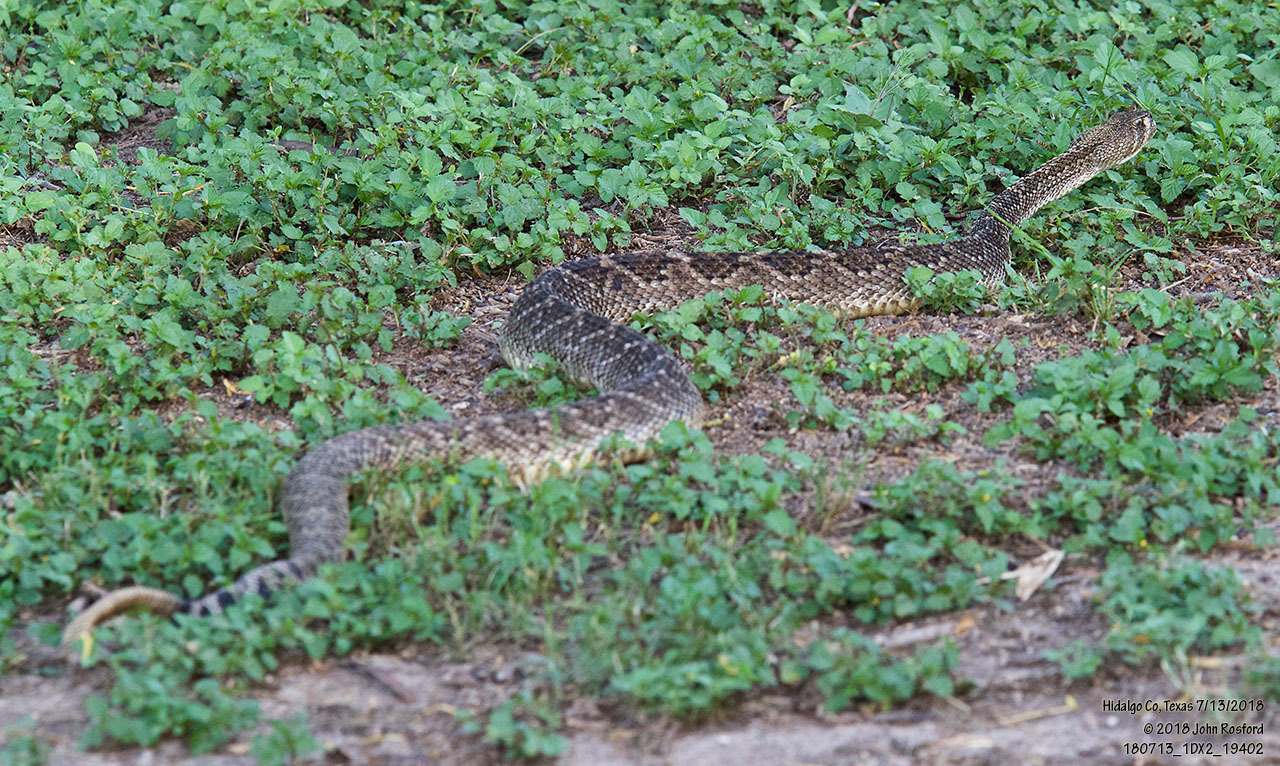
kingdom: Animalia
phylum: Chordata
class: Squamata
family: Viperidae
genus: Crotalus
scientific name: Crotalus atrox
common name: Western diamond-backed rattlesnake
